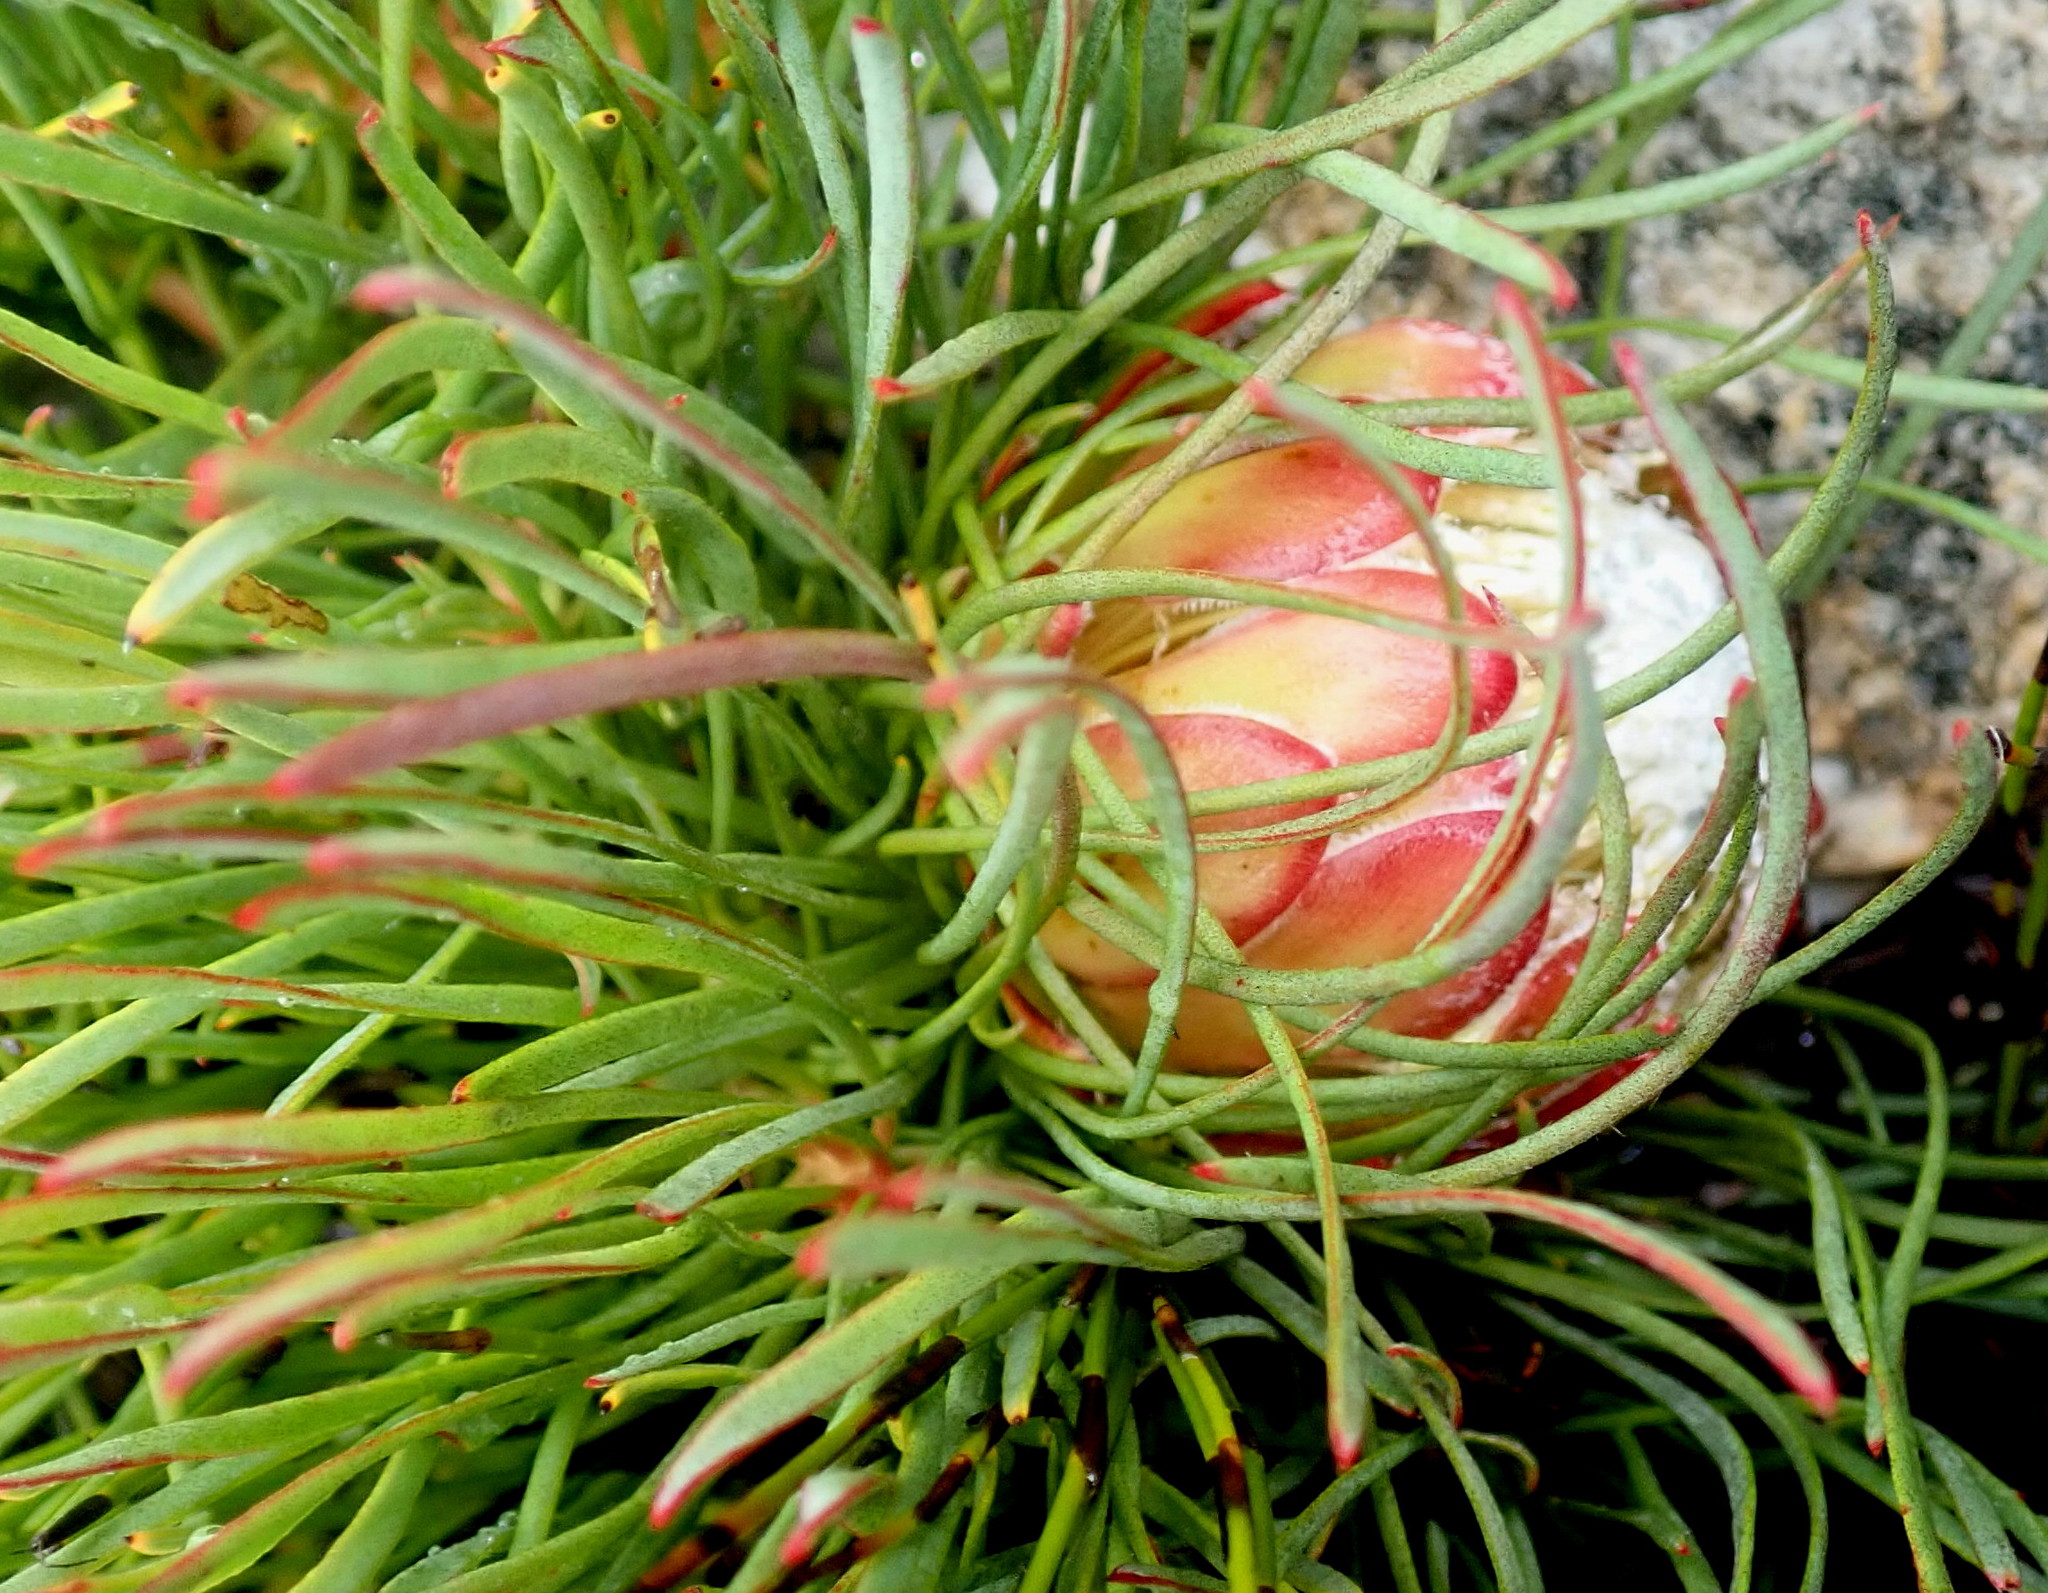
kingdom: Plantae
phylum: Tracheophyta
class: Magnoliopsida
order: Proteales
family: Proteaceae
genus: Protea
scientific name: Protea montana
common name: Swartberg sugarbush
